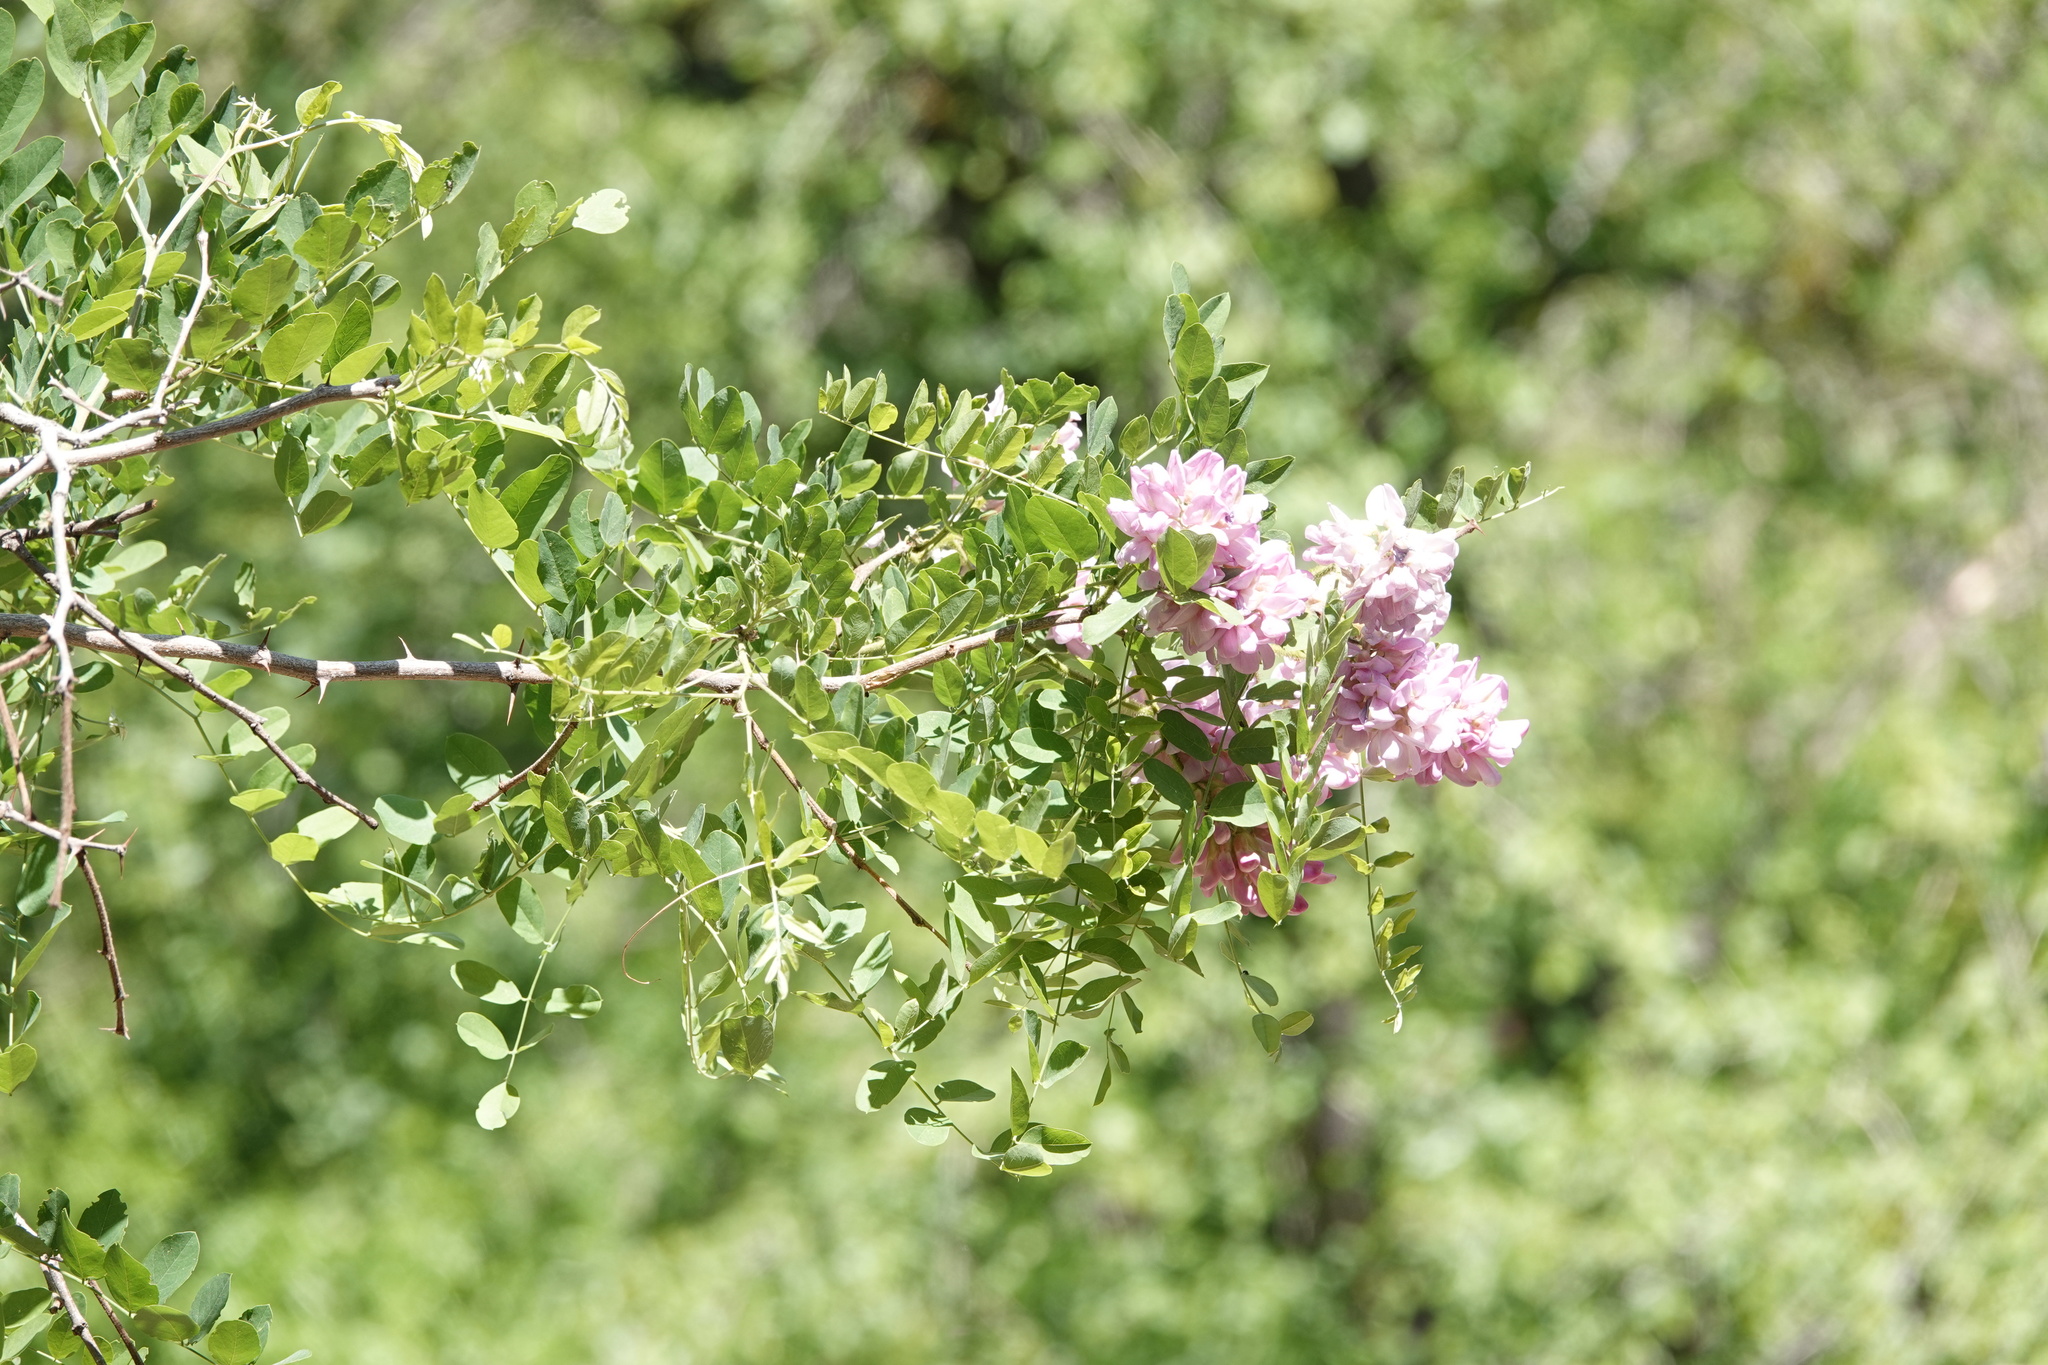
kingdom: Plantae
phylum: Tracheophyta
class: Magnoliopsida
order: Fabales
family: Fabaceae
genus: Robinia
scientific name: Robinia neomexicana
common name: New mexico locust
